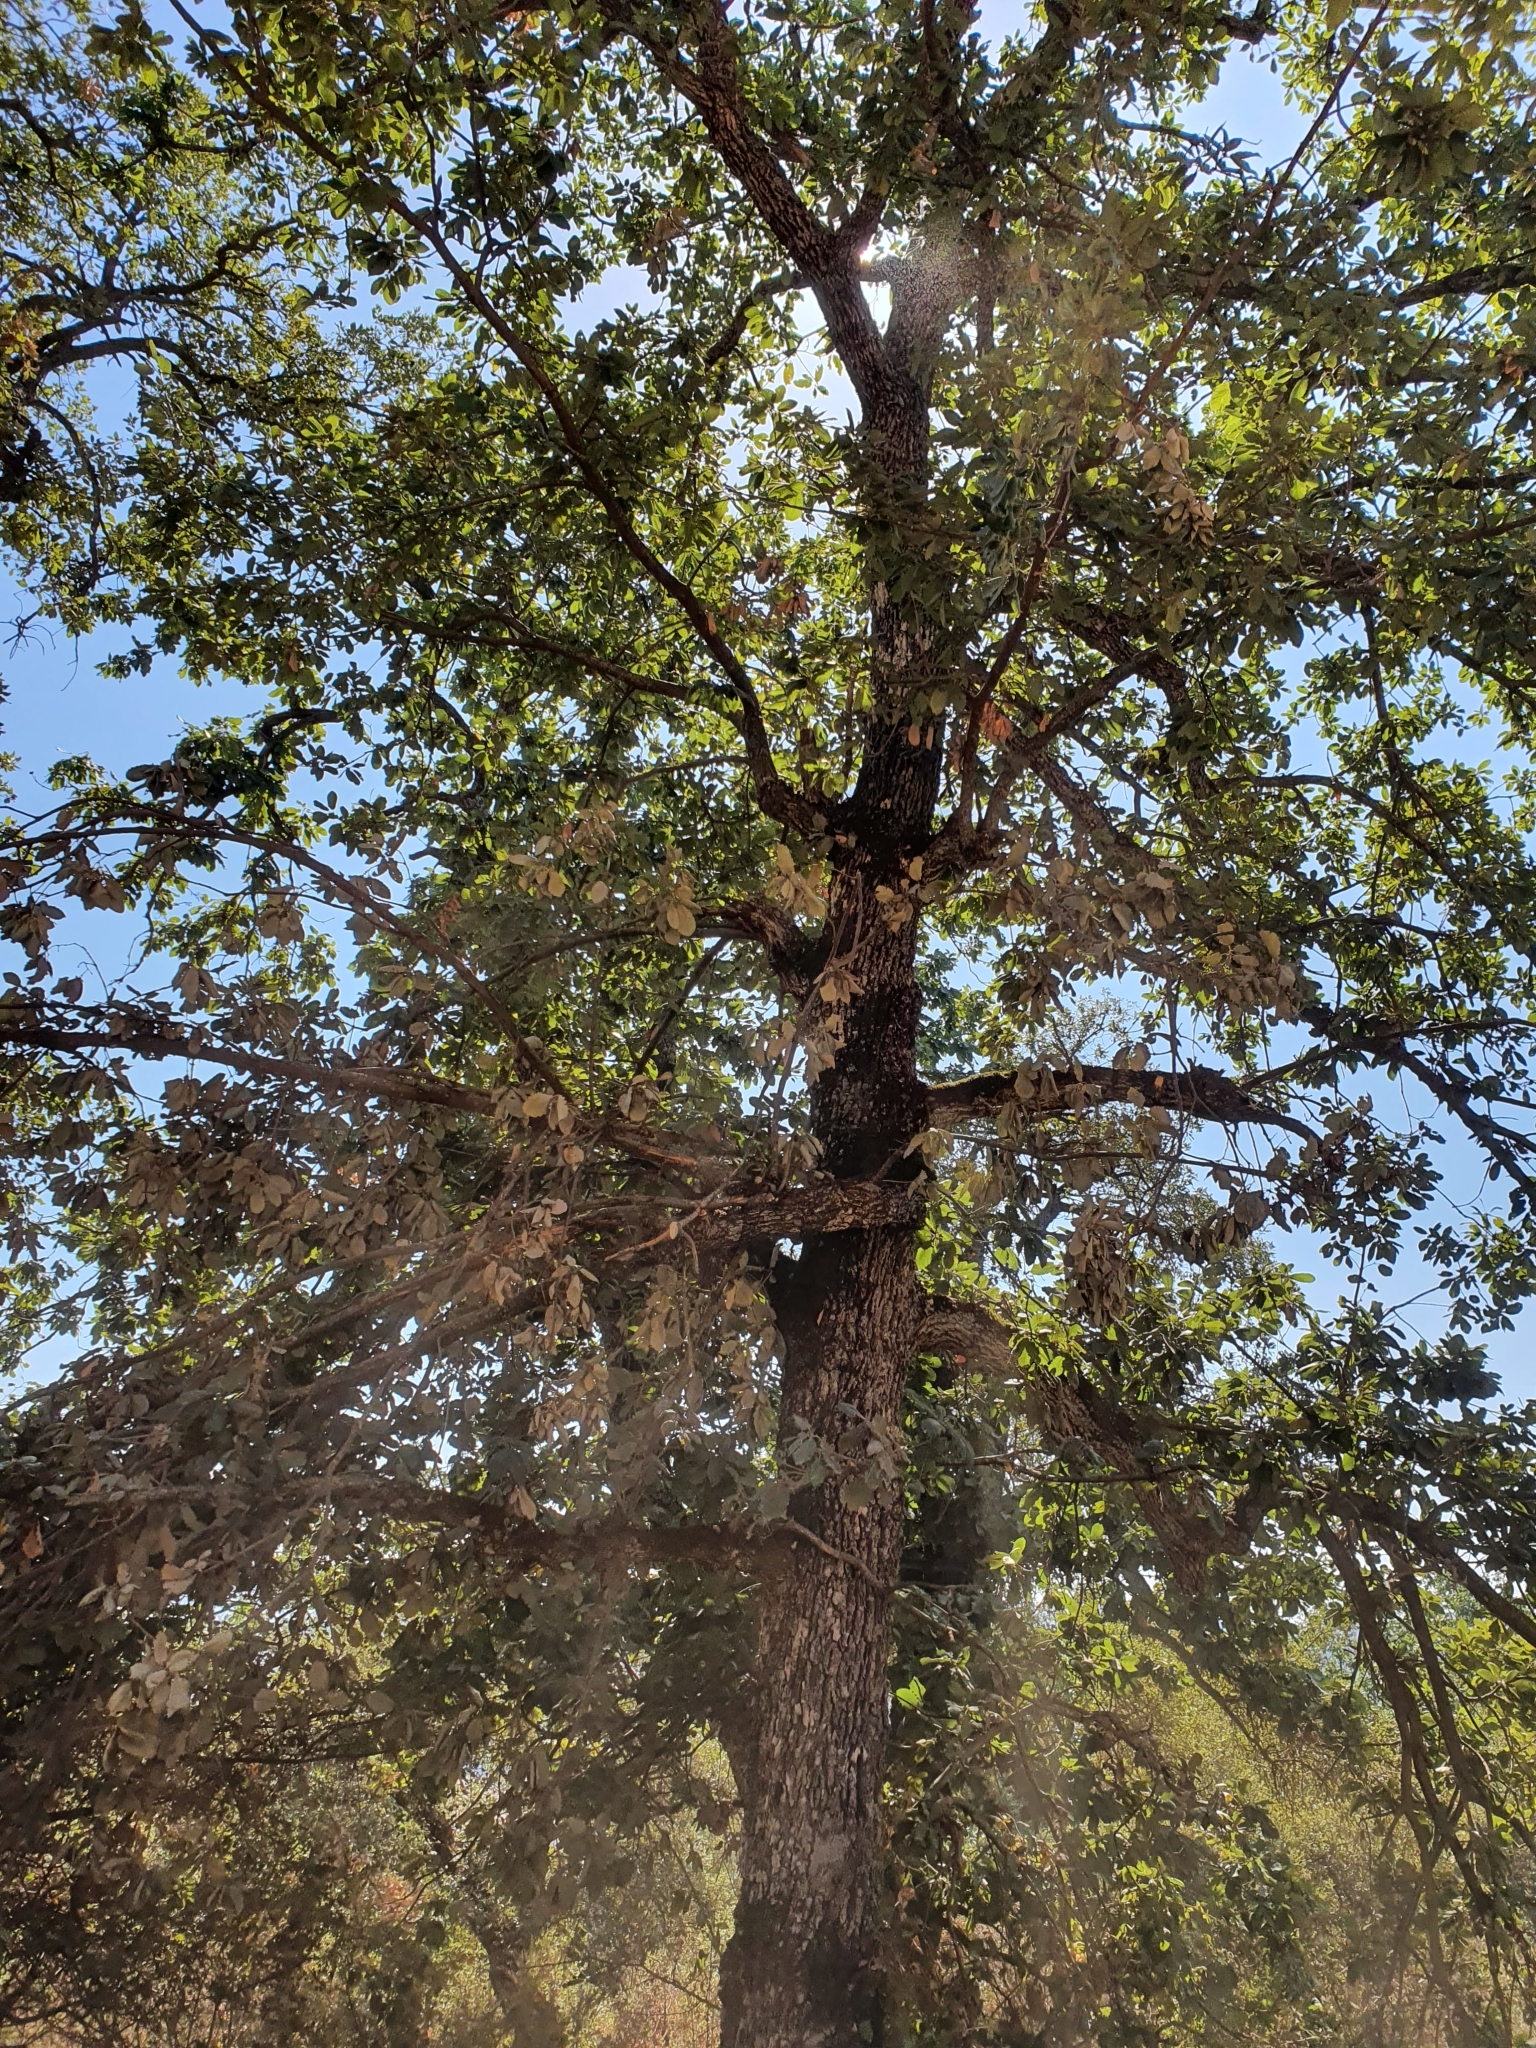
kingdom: Plantae
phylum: Tracheophyta
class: Magnoliopsida
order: Fagales
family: Fagaceae
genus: Quercus
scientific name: Quercus canariensis
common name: Algerian oak
